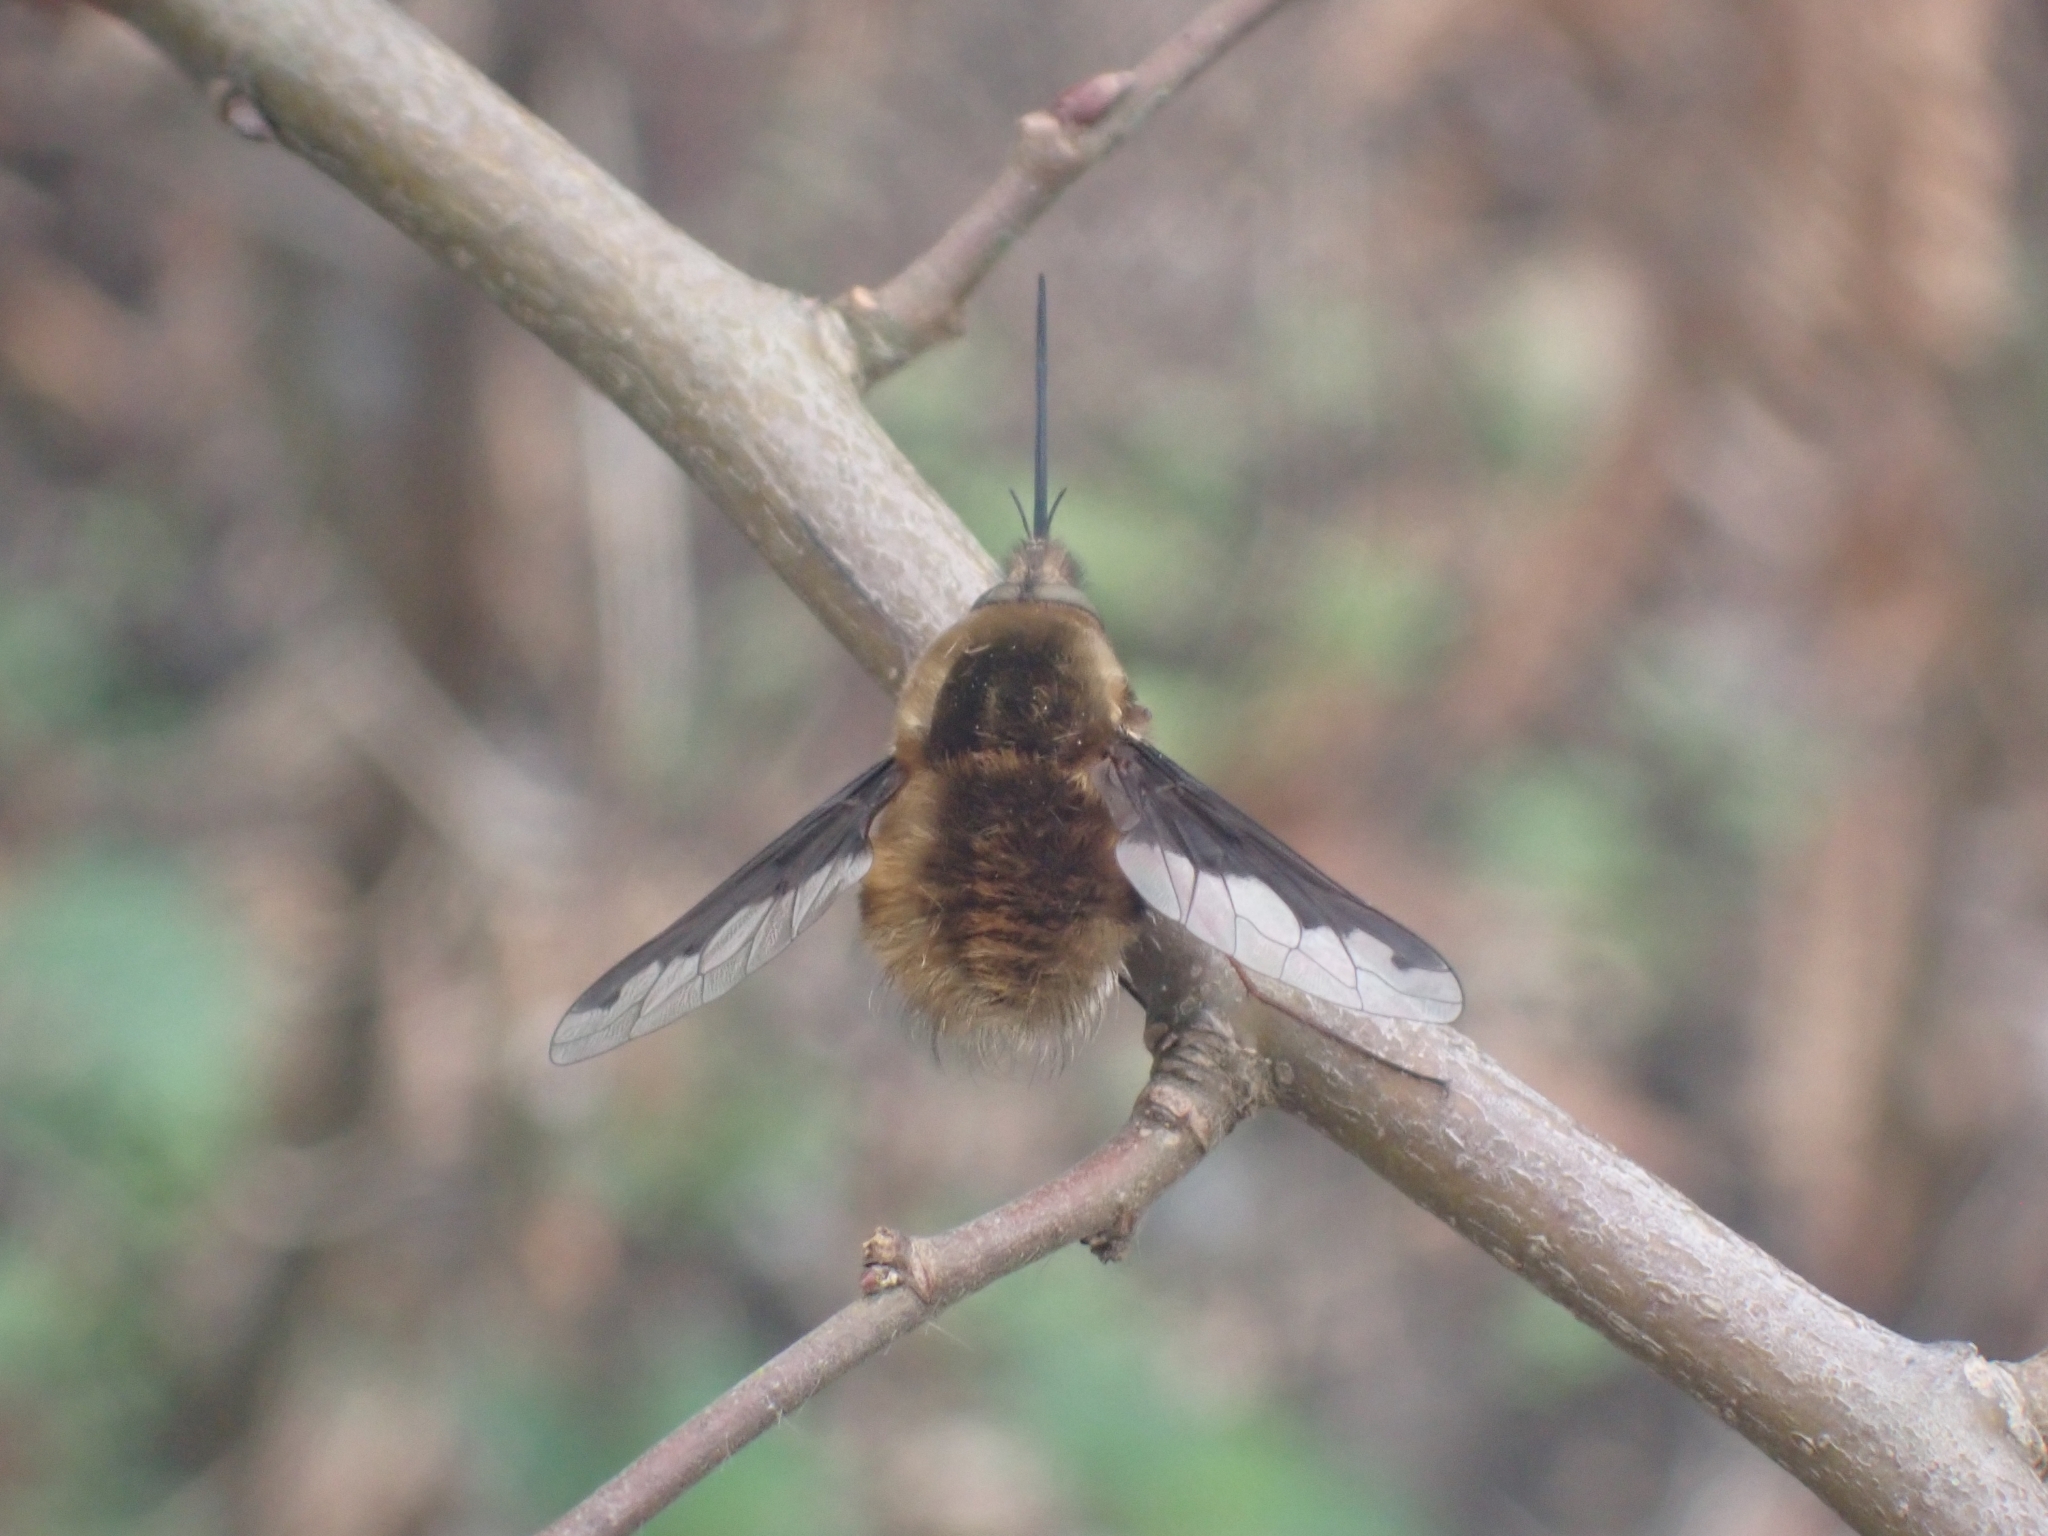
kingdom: Animalia
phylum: Arthropoda
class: Insecta
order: Diptera
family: Bombyliidae
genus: Bombylius
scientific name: Bombylius major
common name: Bee fly
